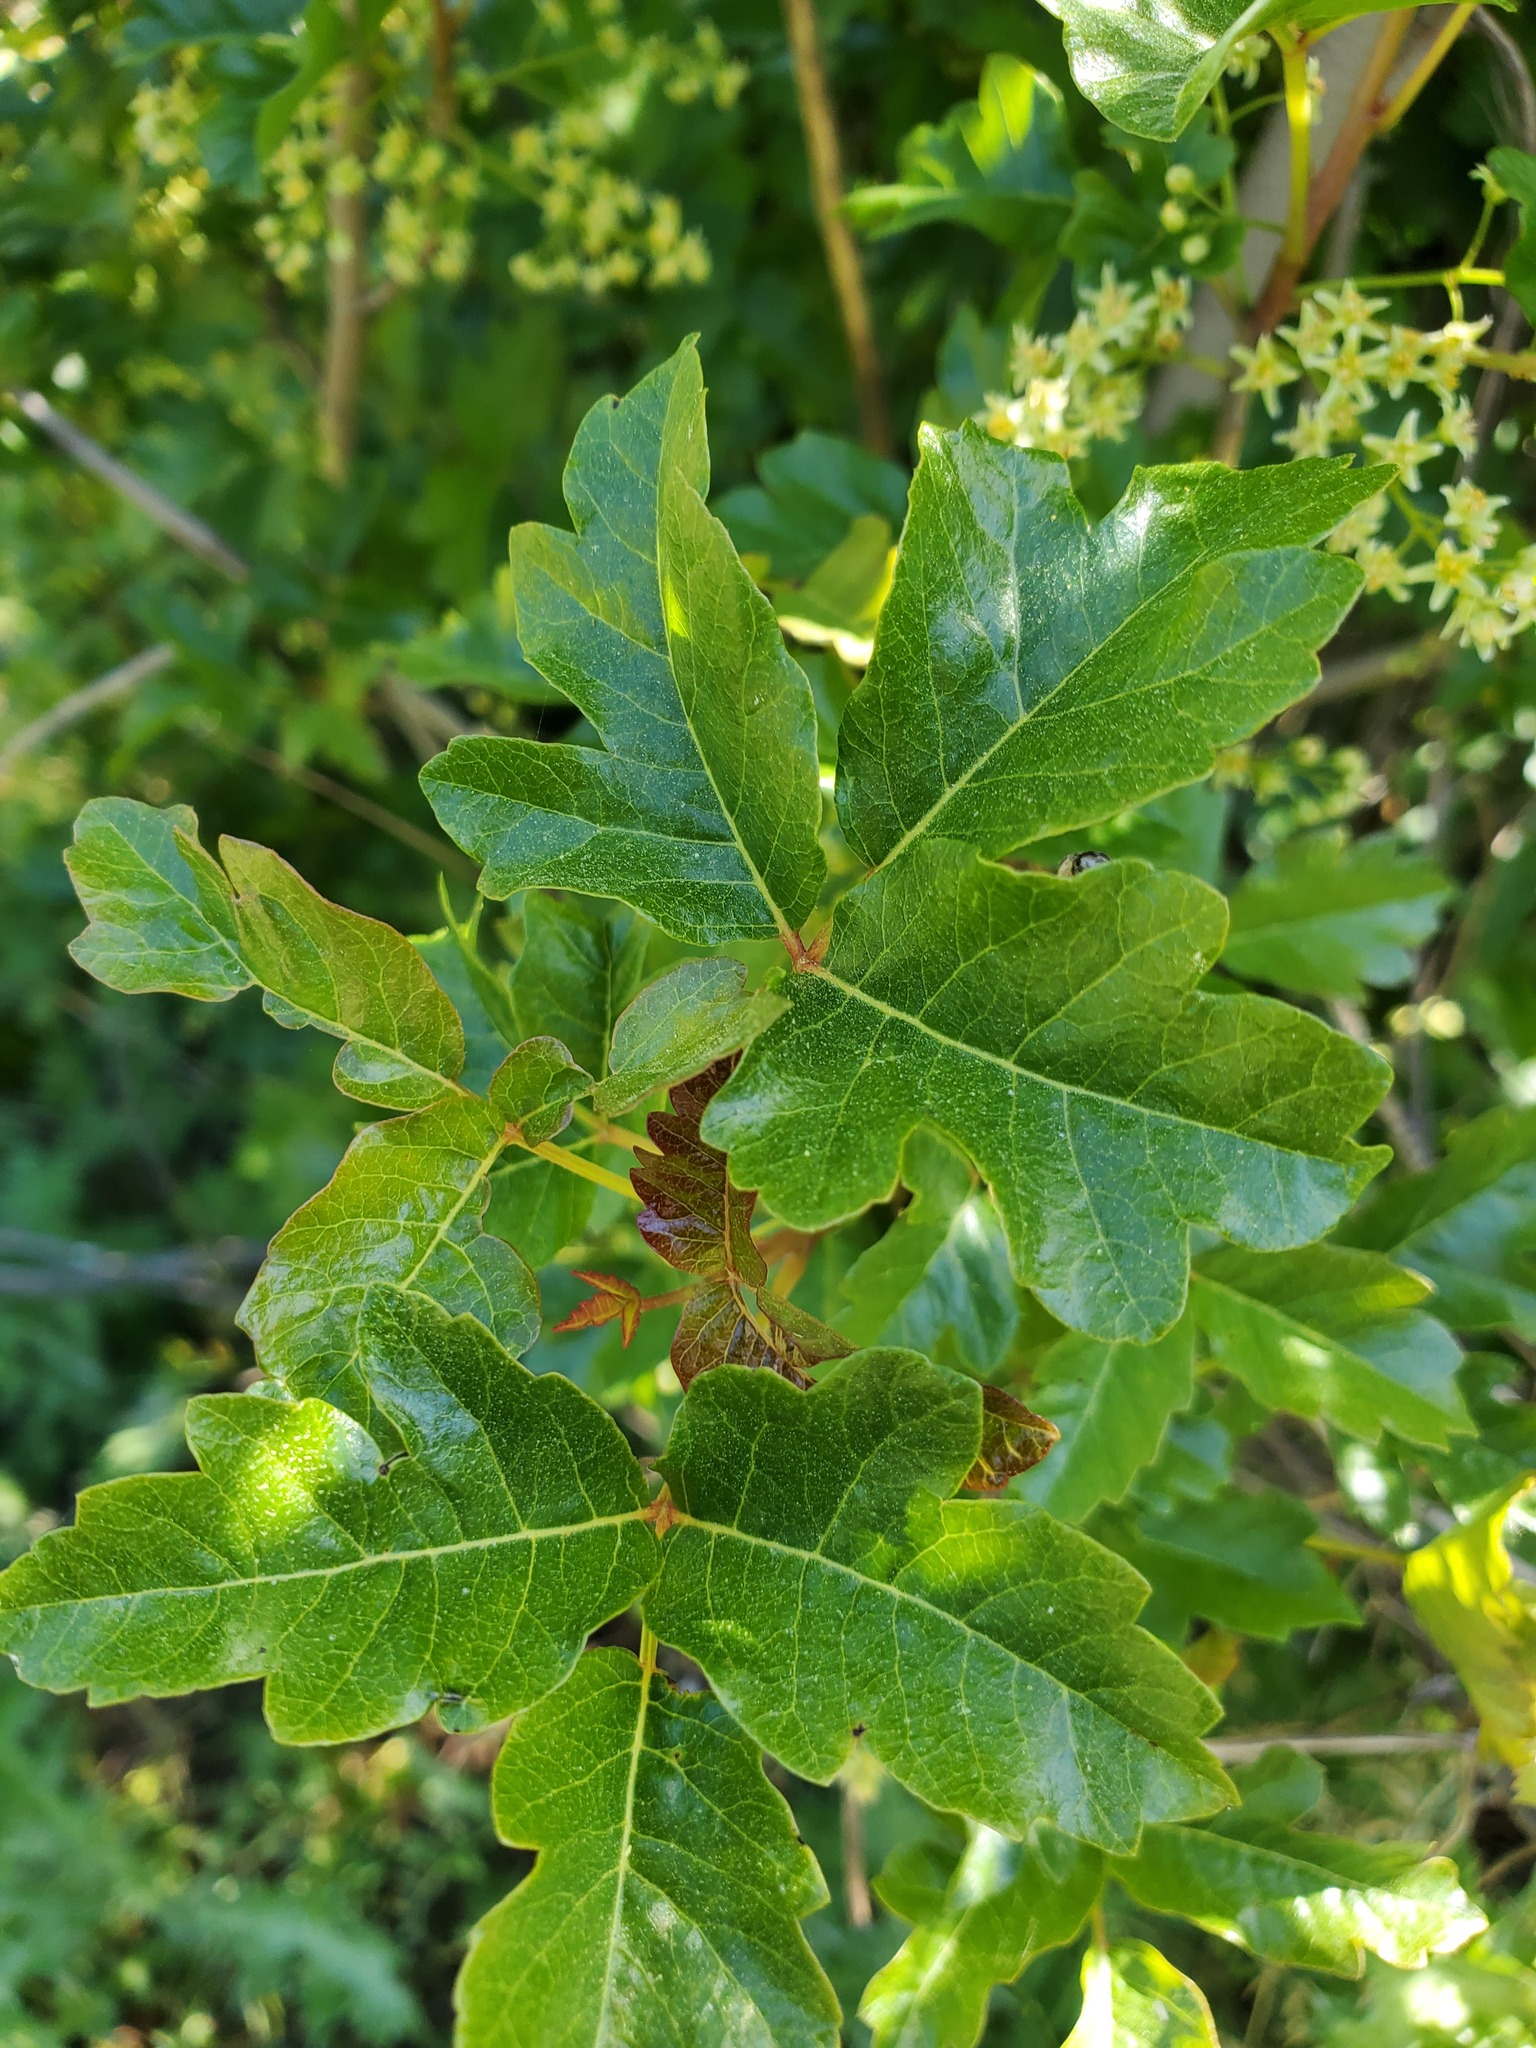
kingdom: Plantae
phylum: Tracheophyta
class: Magnoliopsida
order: Sapindales
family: Anacardiaceae
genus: Toxicodendron
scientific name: Toxicodendron diversilobum
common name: Pacific poison-oak
